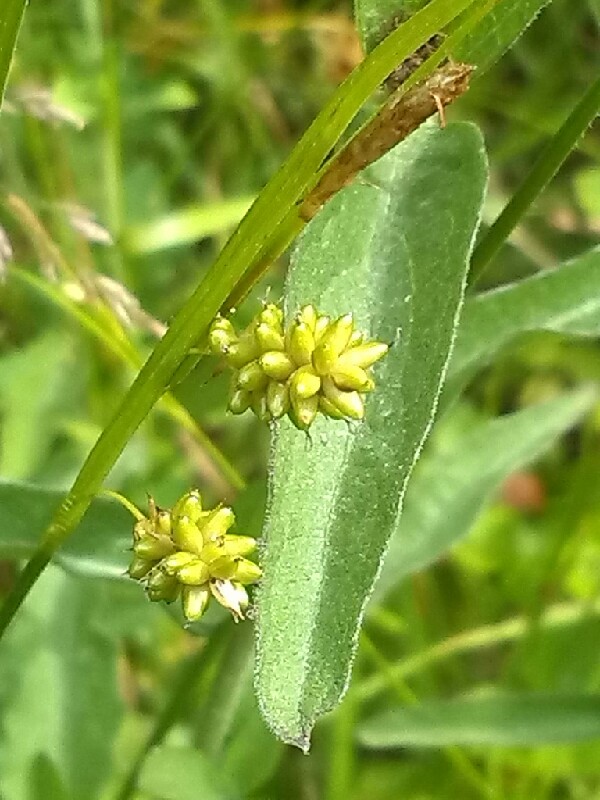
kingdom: Plantae
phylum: Tracheophyta
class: Liliopsida
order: Poales
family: Cyperaceae
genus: Carex
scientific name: Carex pallescens
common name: Pale sedge
